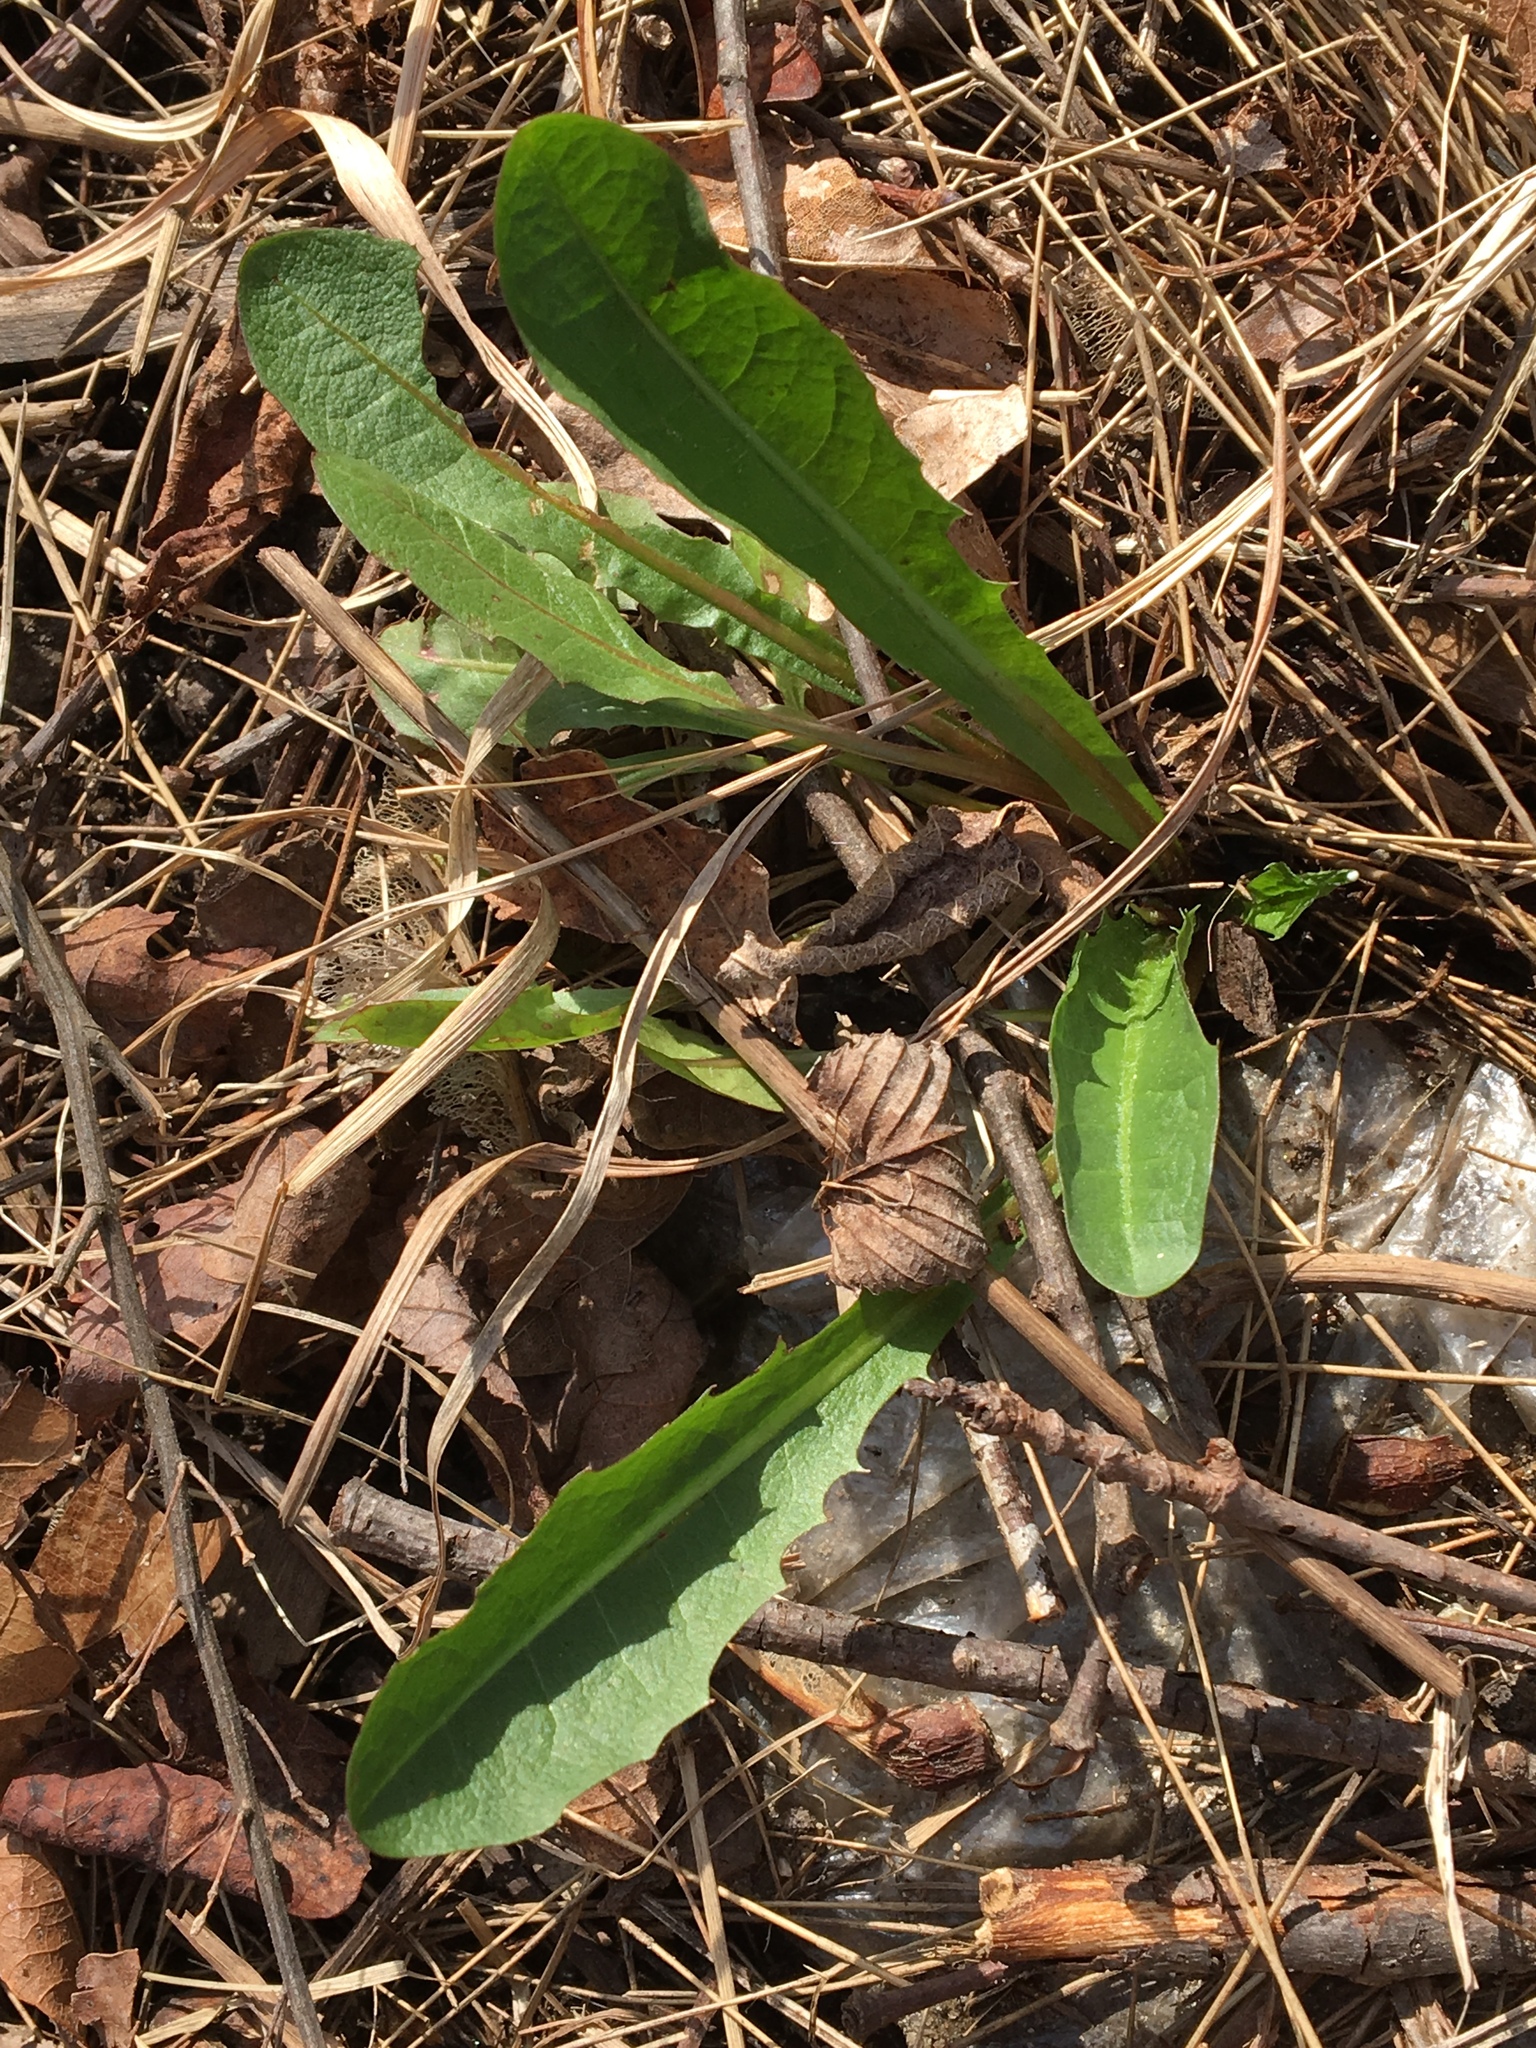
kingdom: Plantae
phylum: Tracheophyta
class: Magnoliopsida
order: Asterales
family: Asteraceae
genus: Taraxacum
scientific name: Taraxacum officinale
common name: Common dandelion
